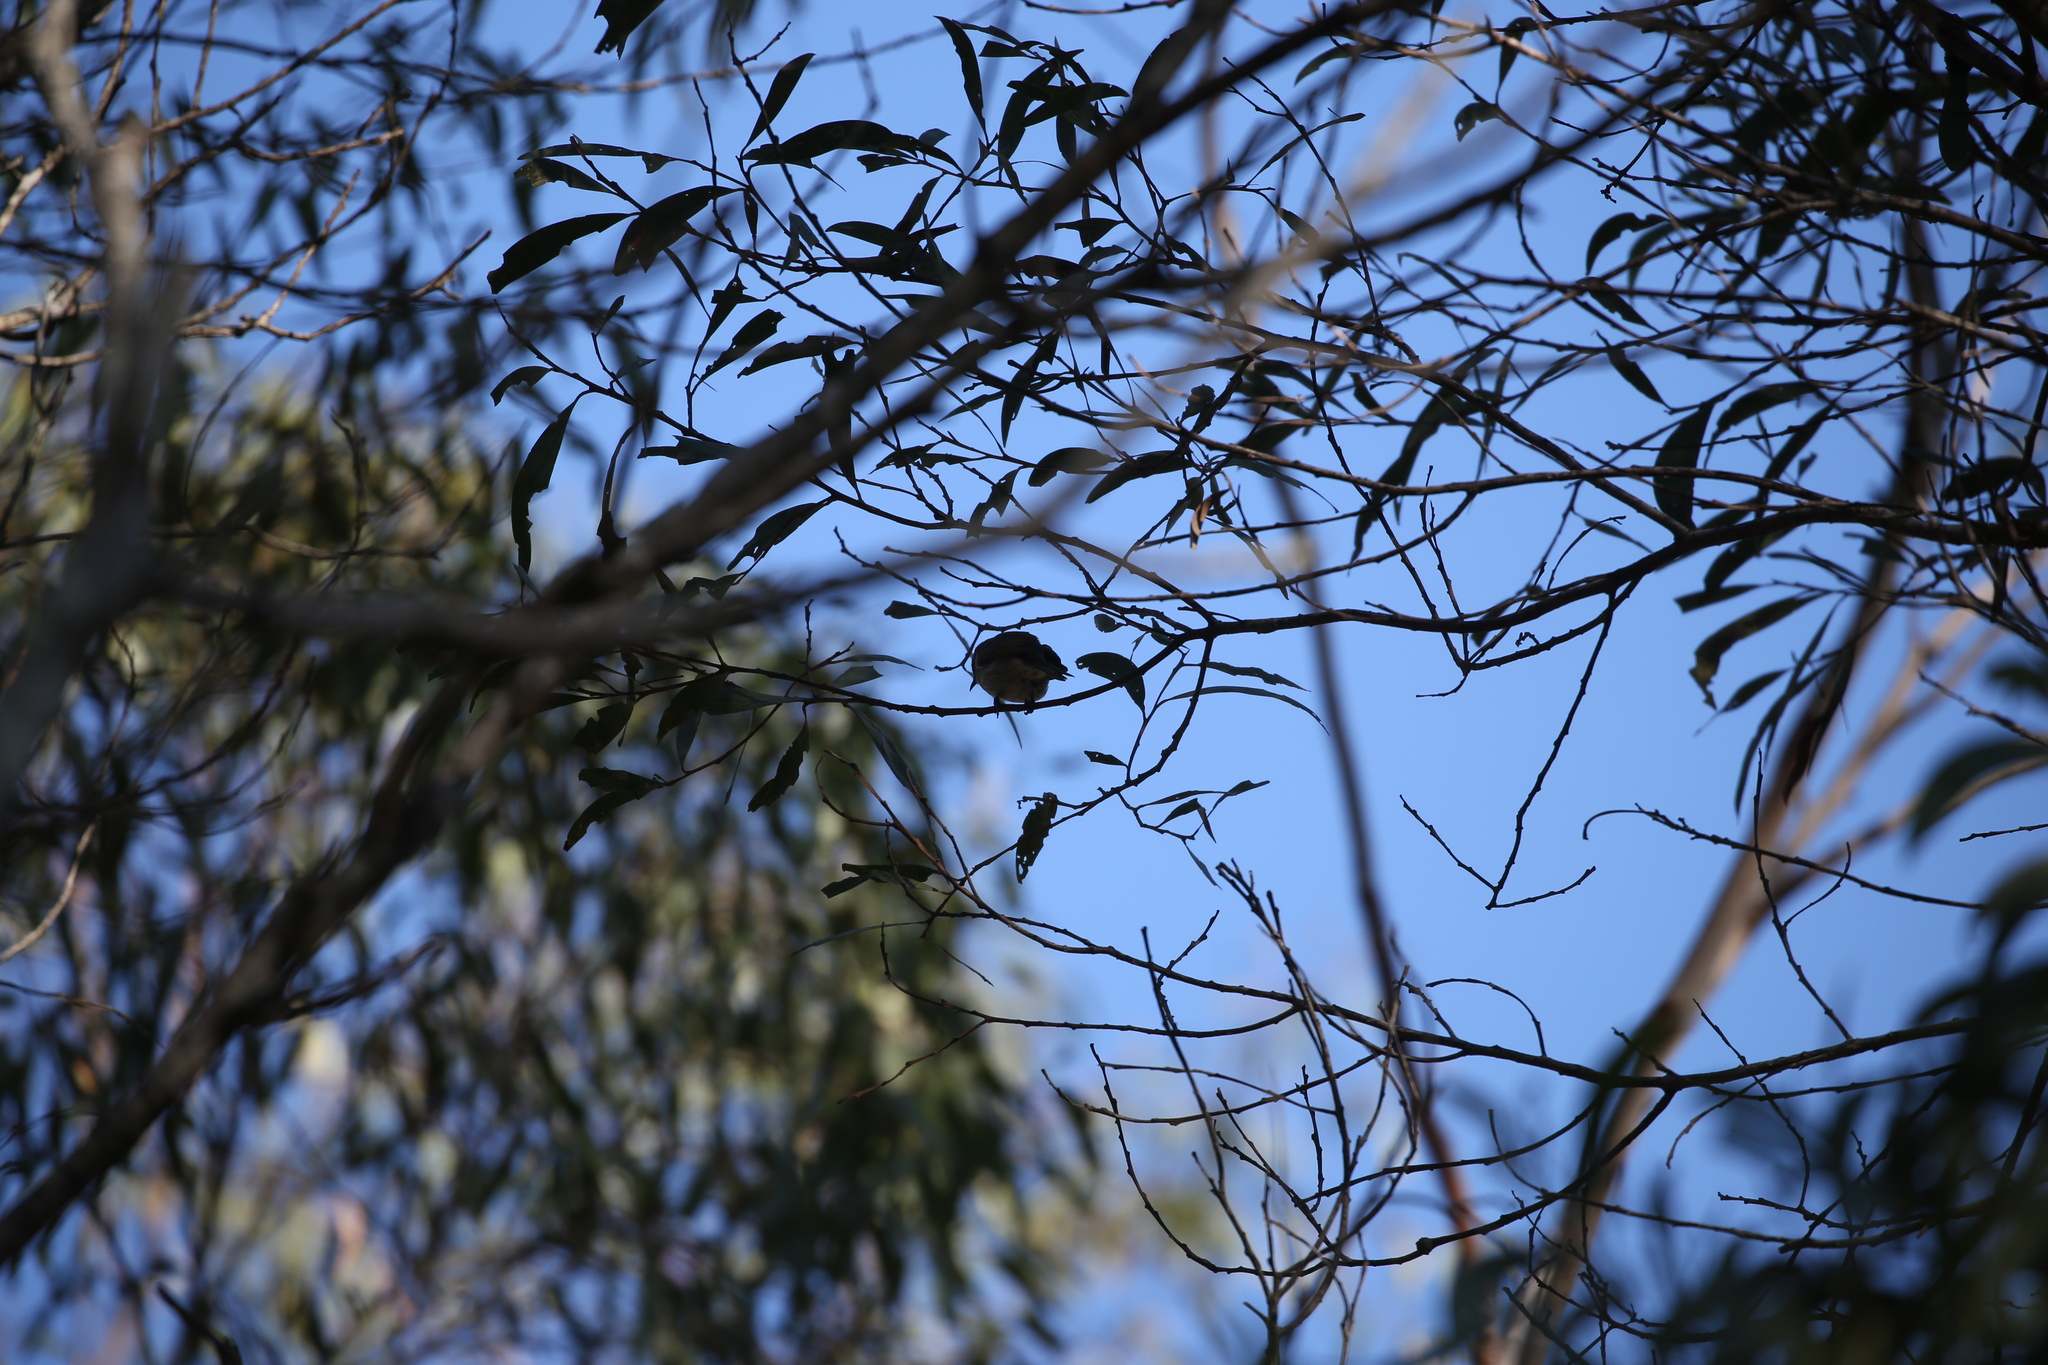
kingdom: Animalia
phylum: Chordata
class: Aves
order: Passeriformes
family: Meliphagidae
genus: Caligavis
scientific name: Caligavis chrysops
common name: Yellow-faced honeyeater
